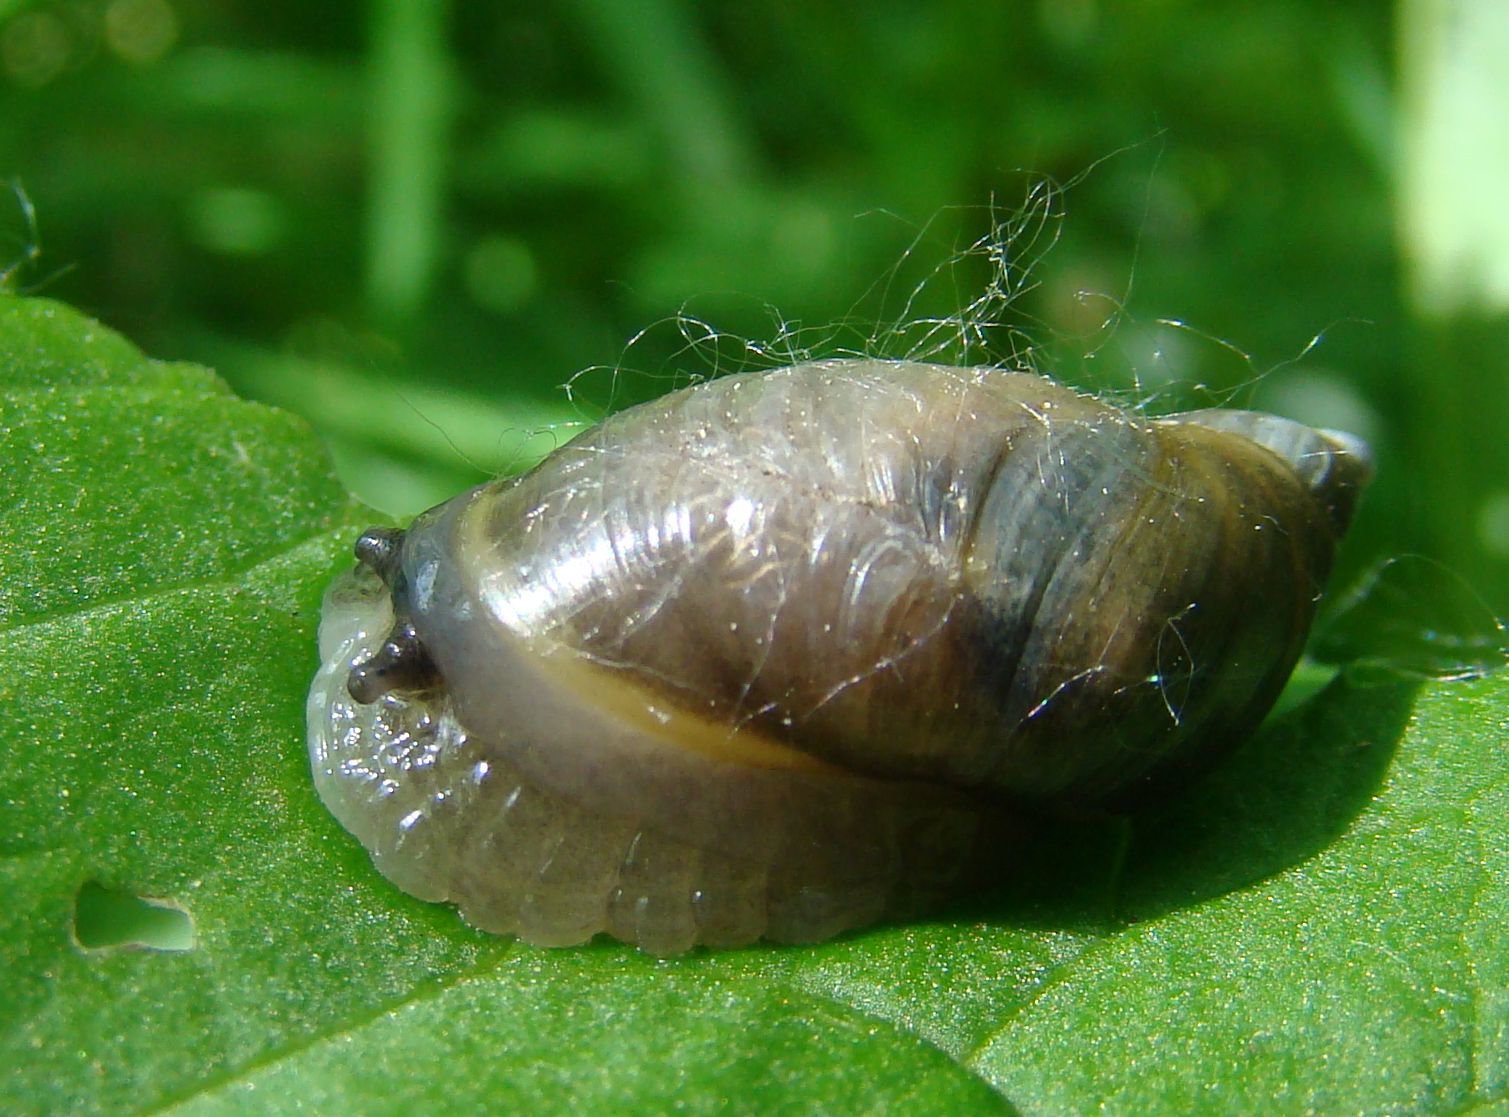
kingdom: Animalia
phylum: Mollusca
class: Gastropoda
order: Stylommatophora
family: Succineidae
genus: Succinea
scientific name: Succinea putris
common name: European ambersnail
